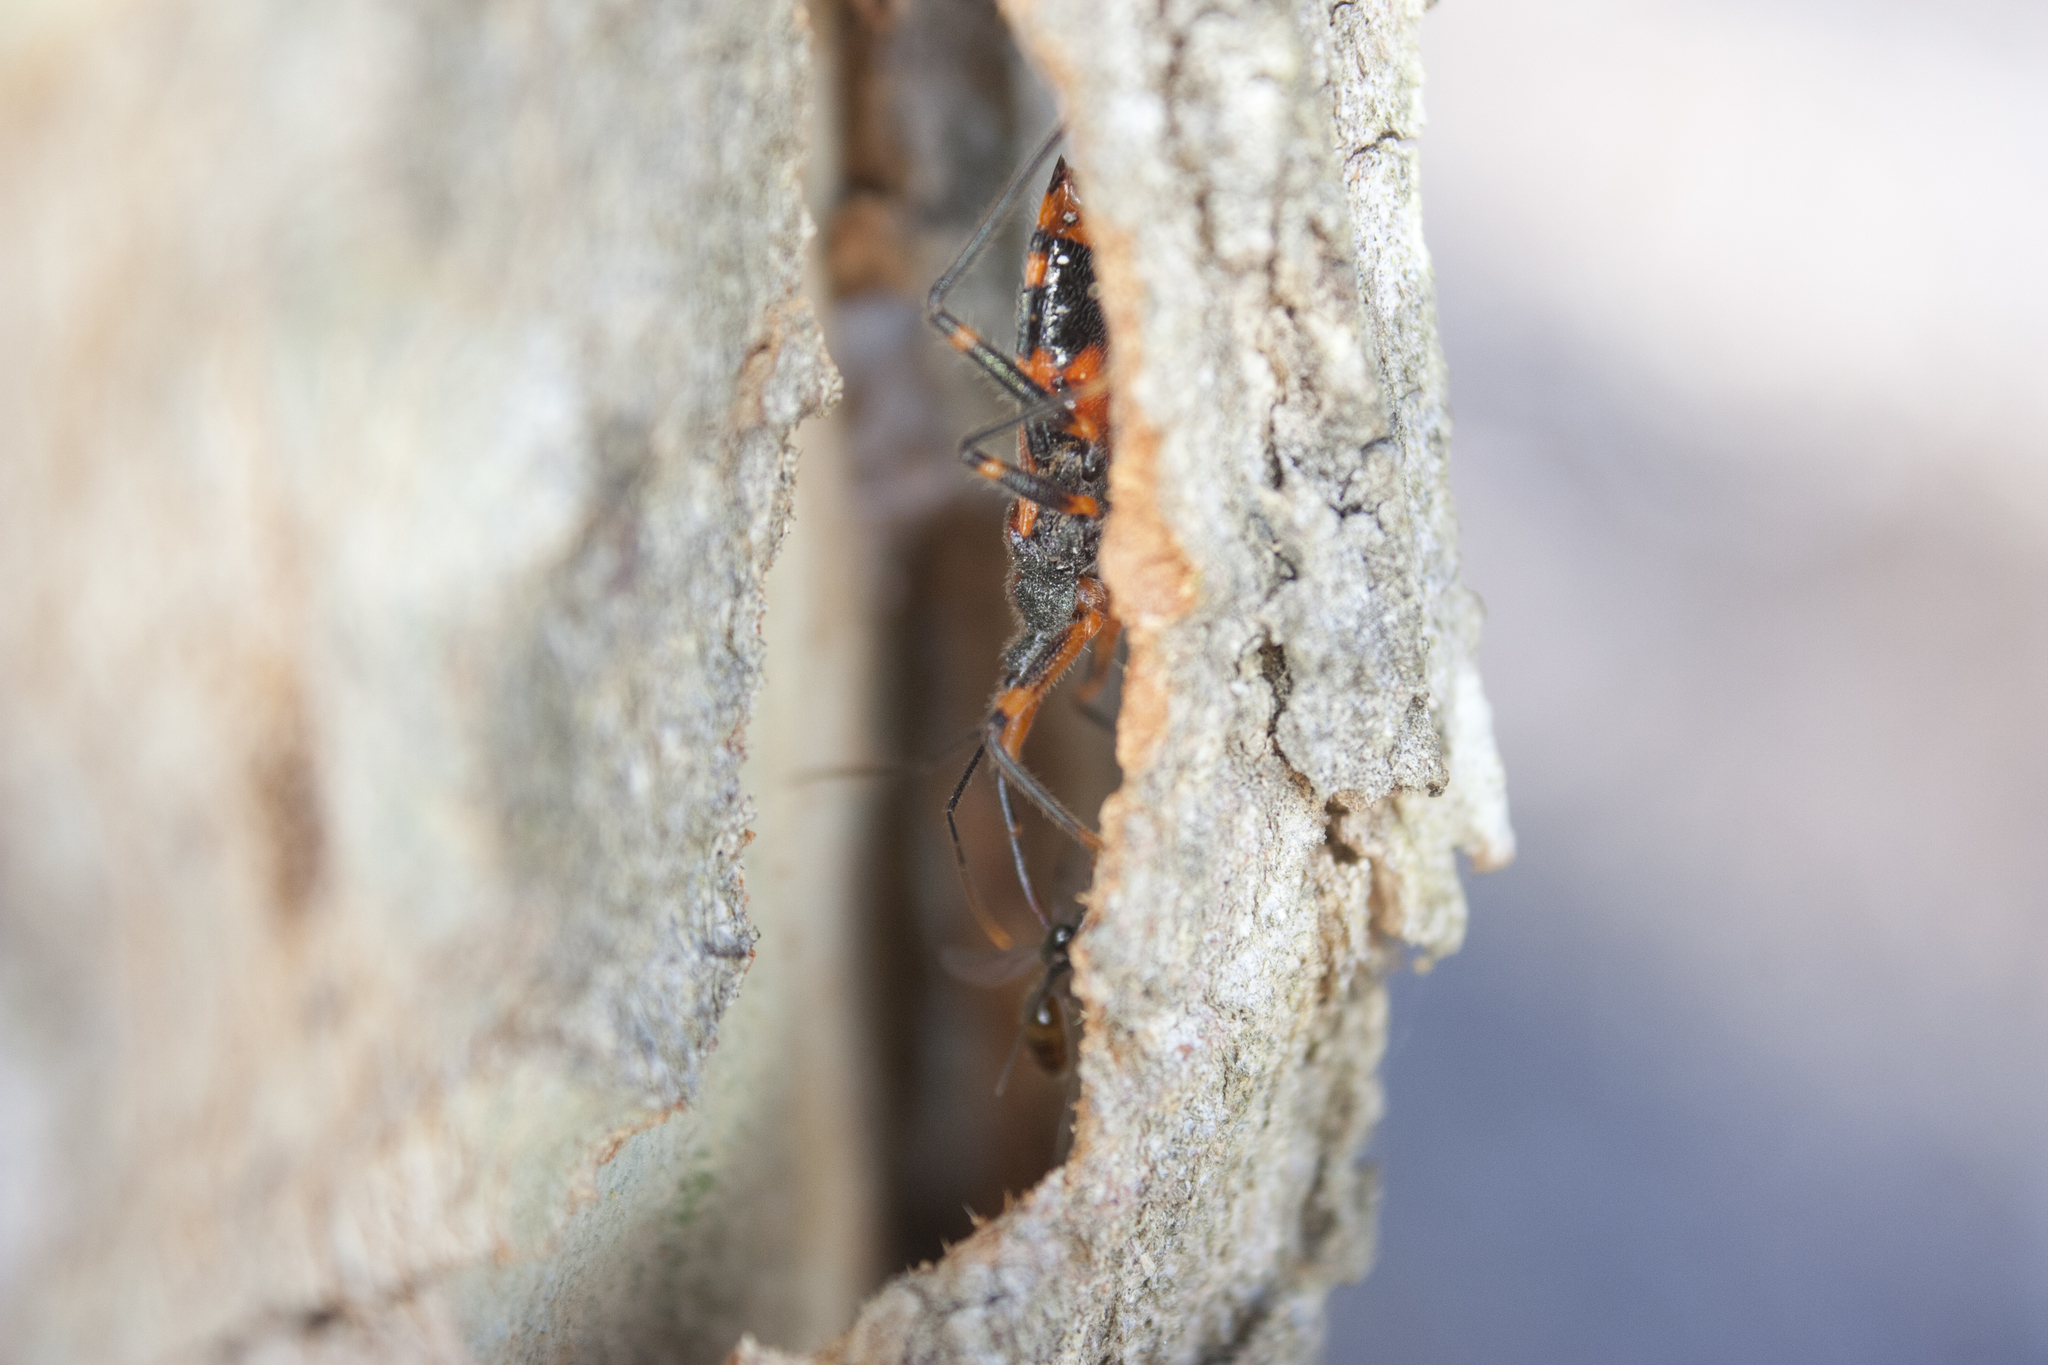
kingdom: Animalia
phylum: Arthropoda
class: Insecta
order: Hemiptera
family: Reduviidae
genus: Havinthus
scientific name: Havinthus rufovarius
